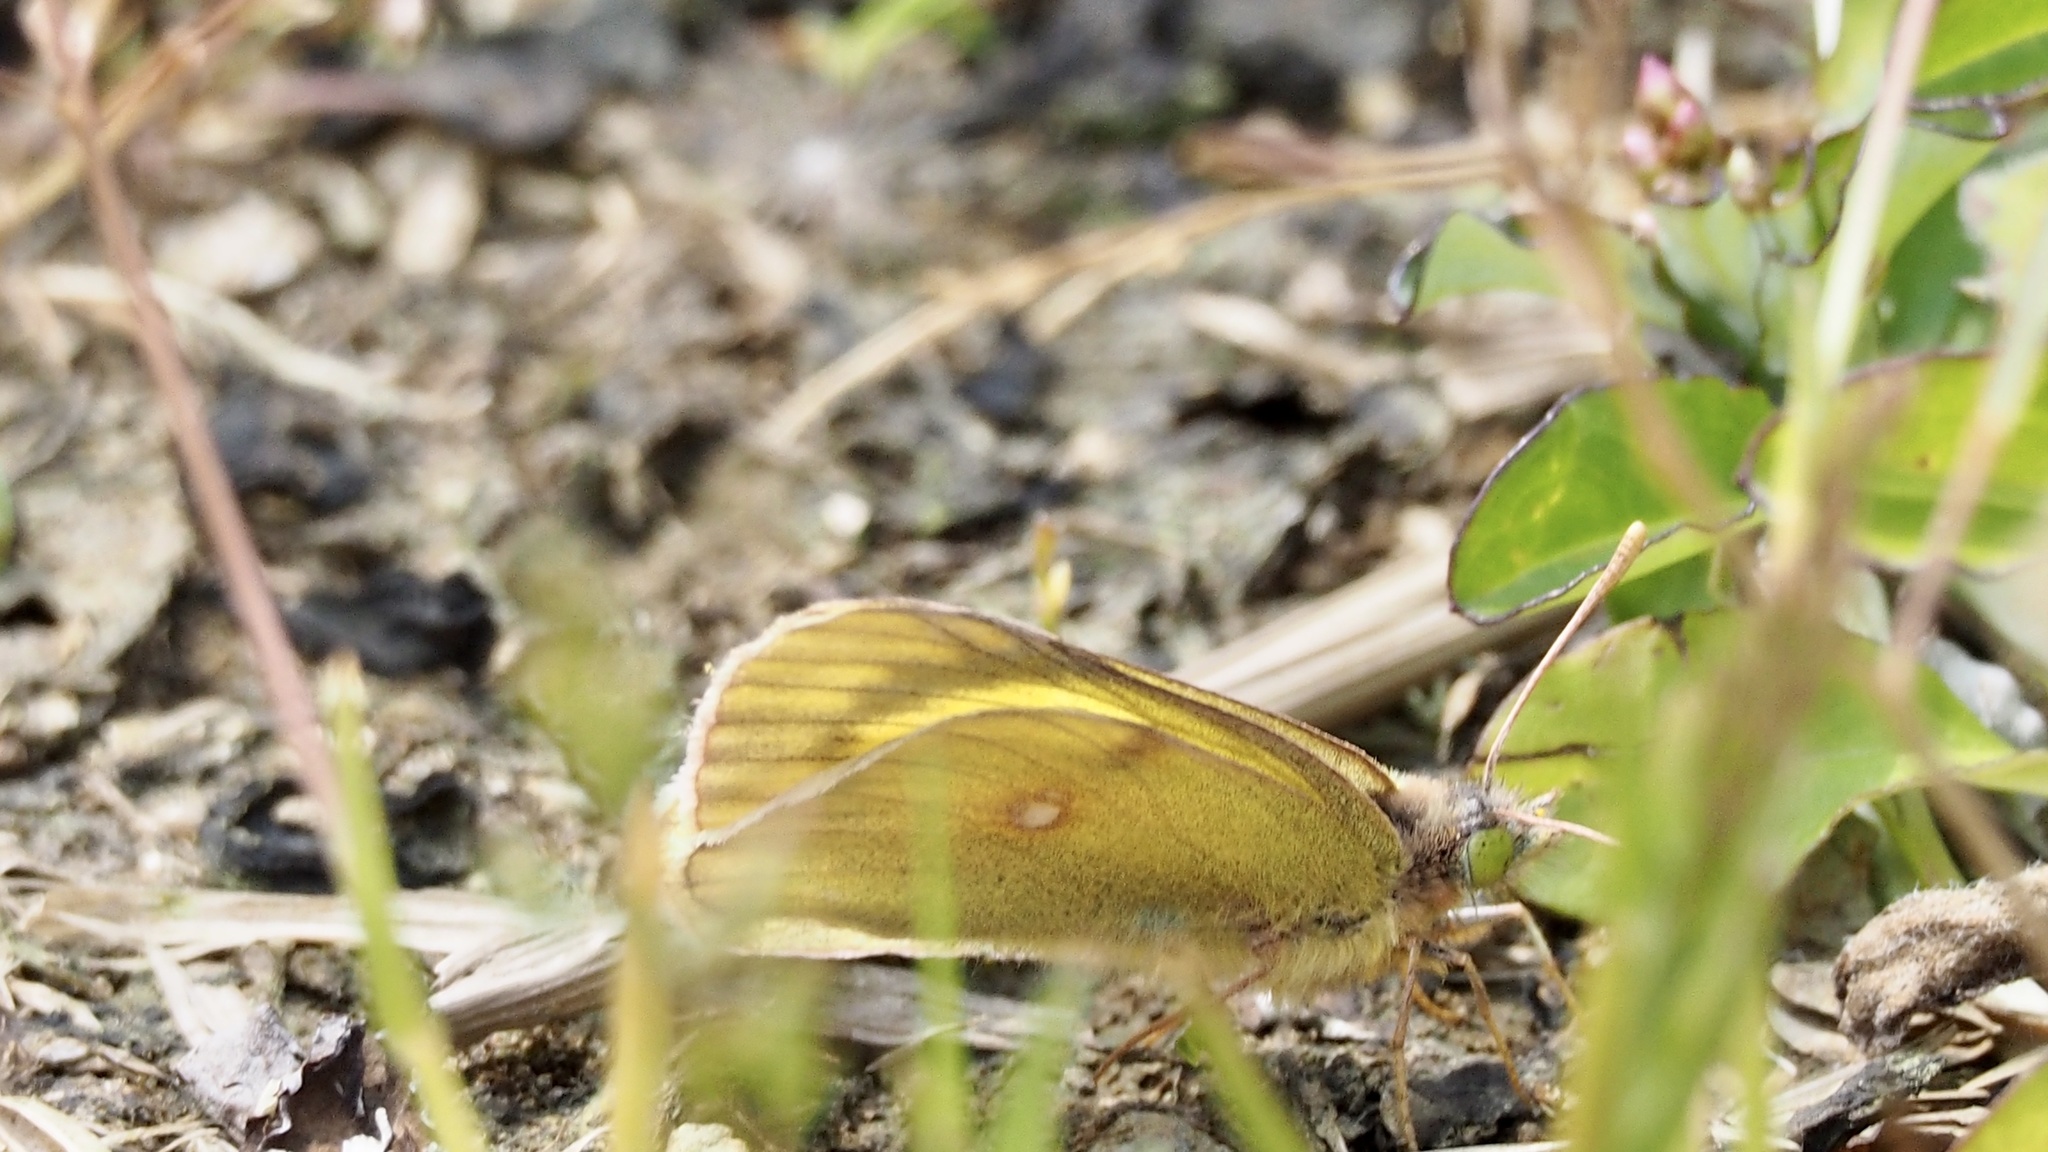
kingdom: Animalia
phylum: Arthropoda
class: Insecta
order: Lepidoptera
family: Pieridae
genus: Colias
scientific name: Colias poliographus
